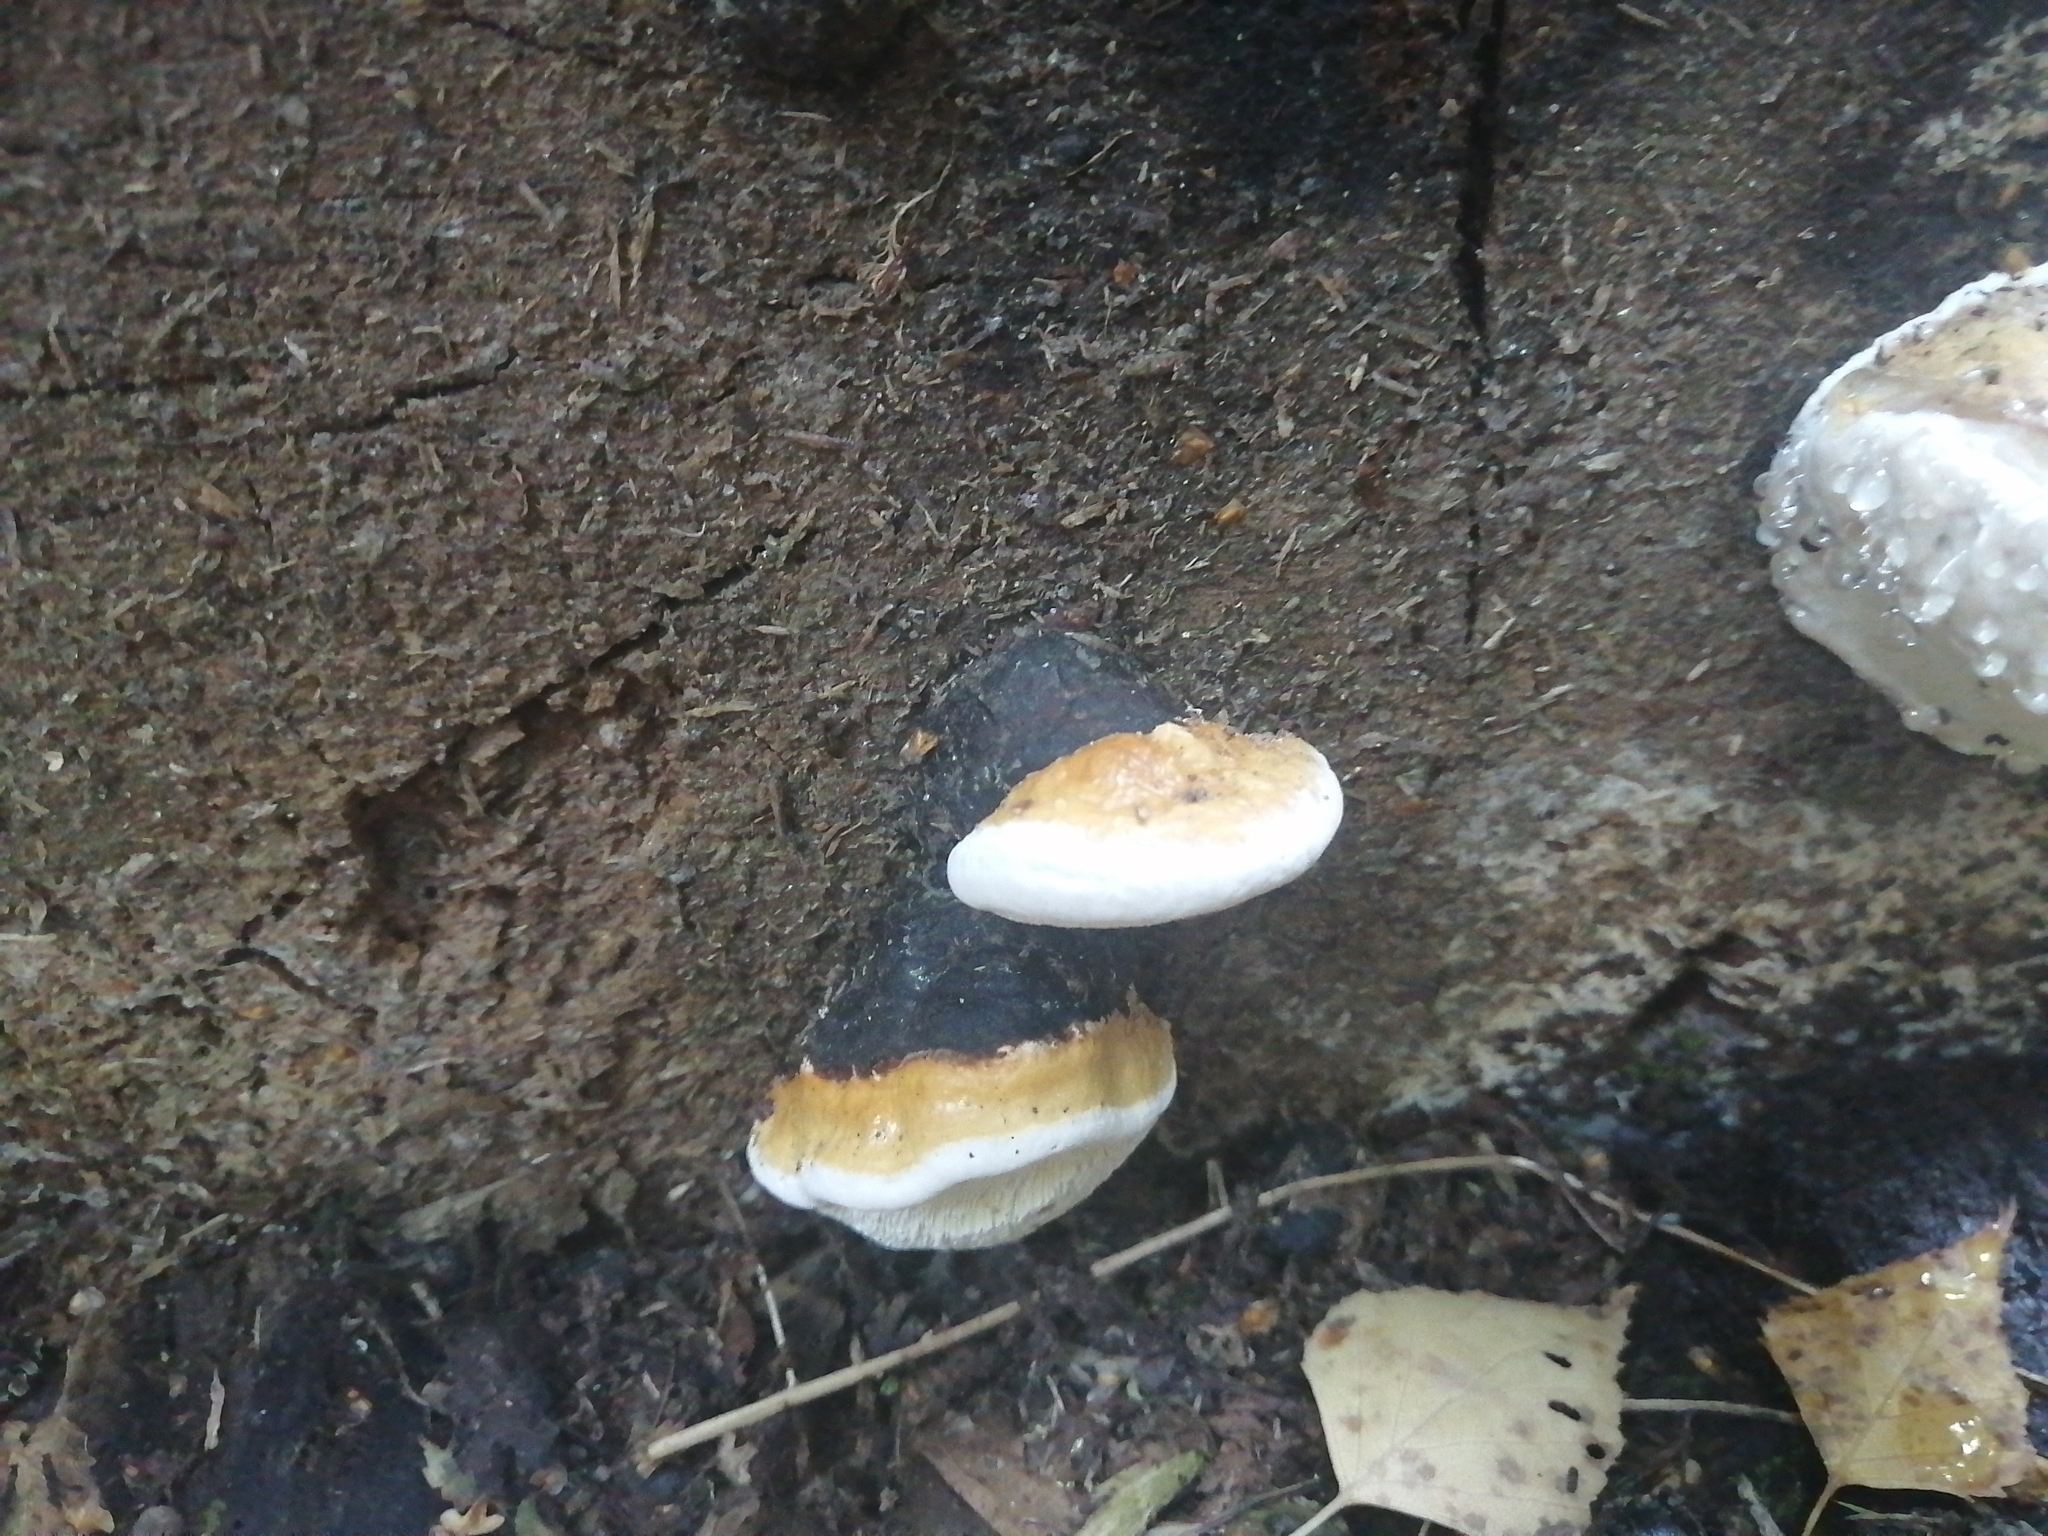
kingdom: Fungi
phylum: Basidiomycota
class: Agaricomycetes
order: Polyporales
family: Fomitopsidaceae
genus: Fomitopsis
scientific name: Fomitopsis pinicola
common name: Red-belted bracket
